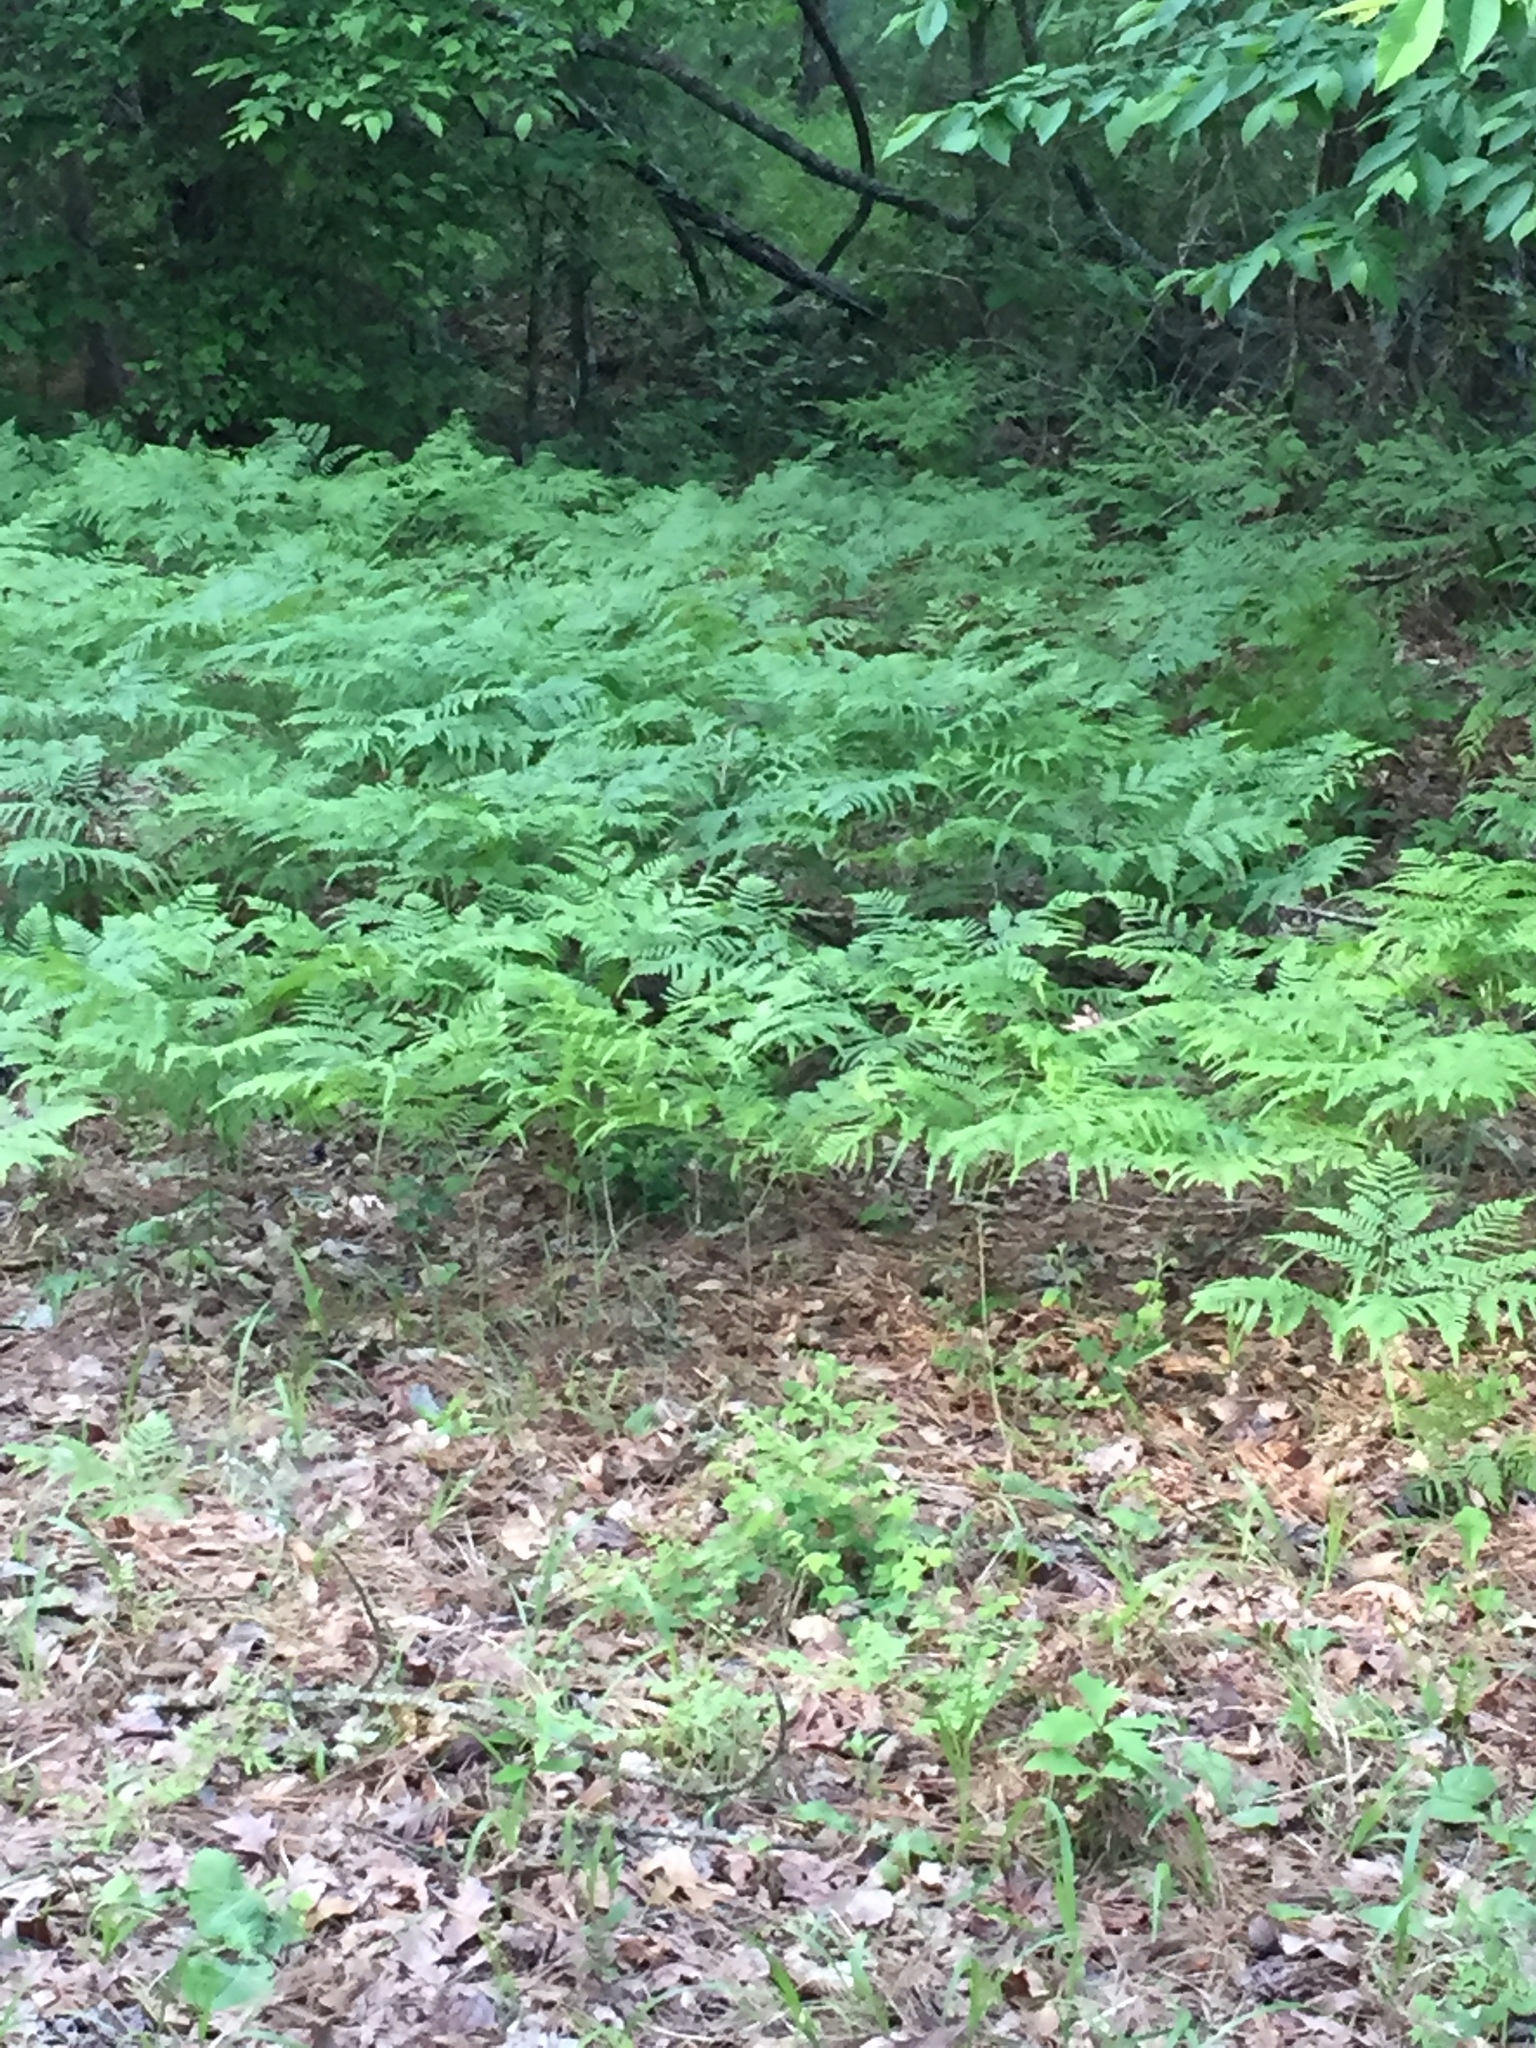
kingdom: Plantae
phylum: Tracheophyta
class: Polypodiopsida
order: Polypodiales
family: Dennstaedtiaceae
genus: Pteridium
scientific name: Pteridium
